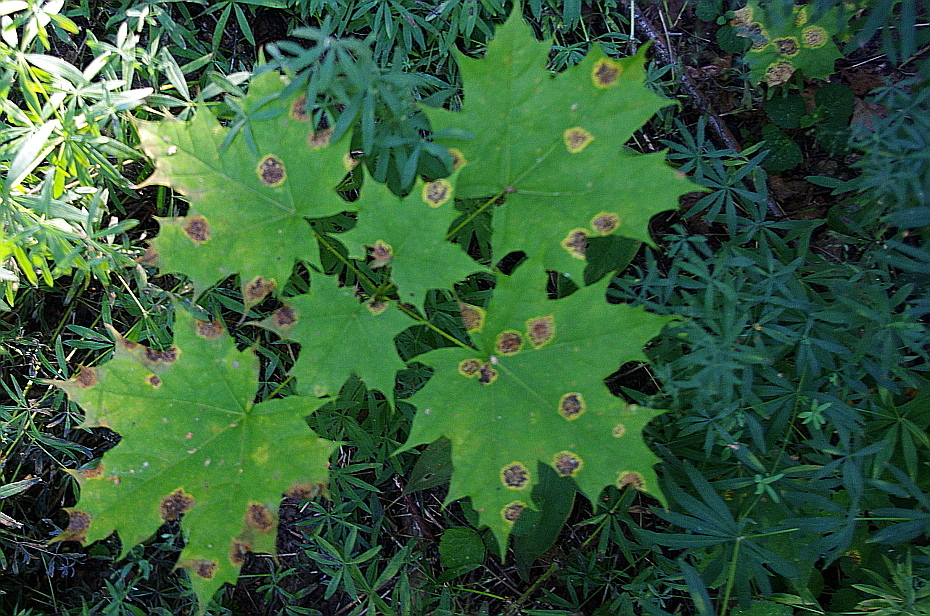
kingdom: Fungi
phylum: Ascomycota
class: Leotiomycetes
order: Rhytismatales
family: Rhytismataceae
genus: Rhytisma
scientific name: Rhytisma acerinum
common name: European tar spot
